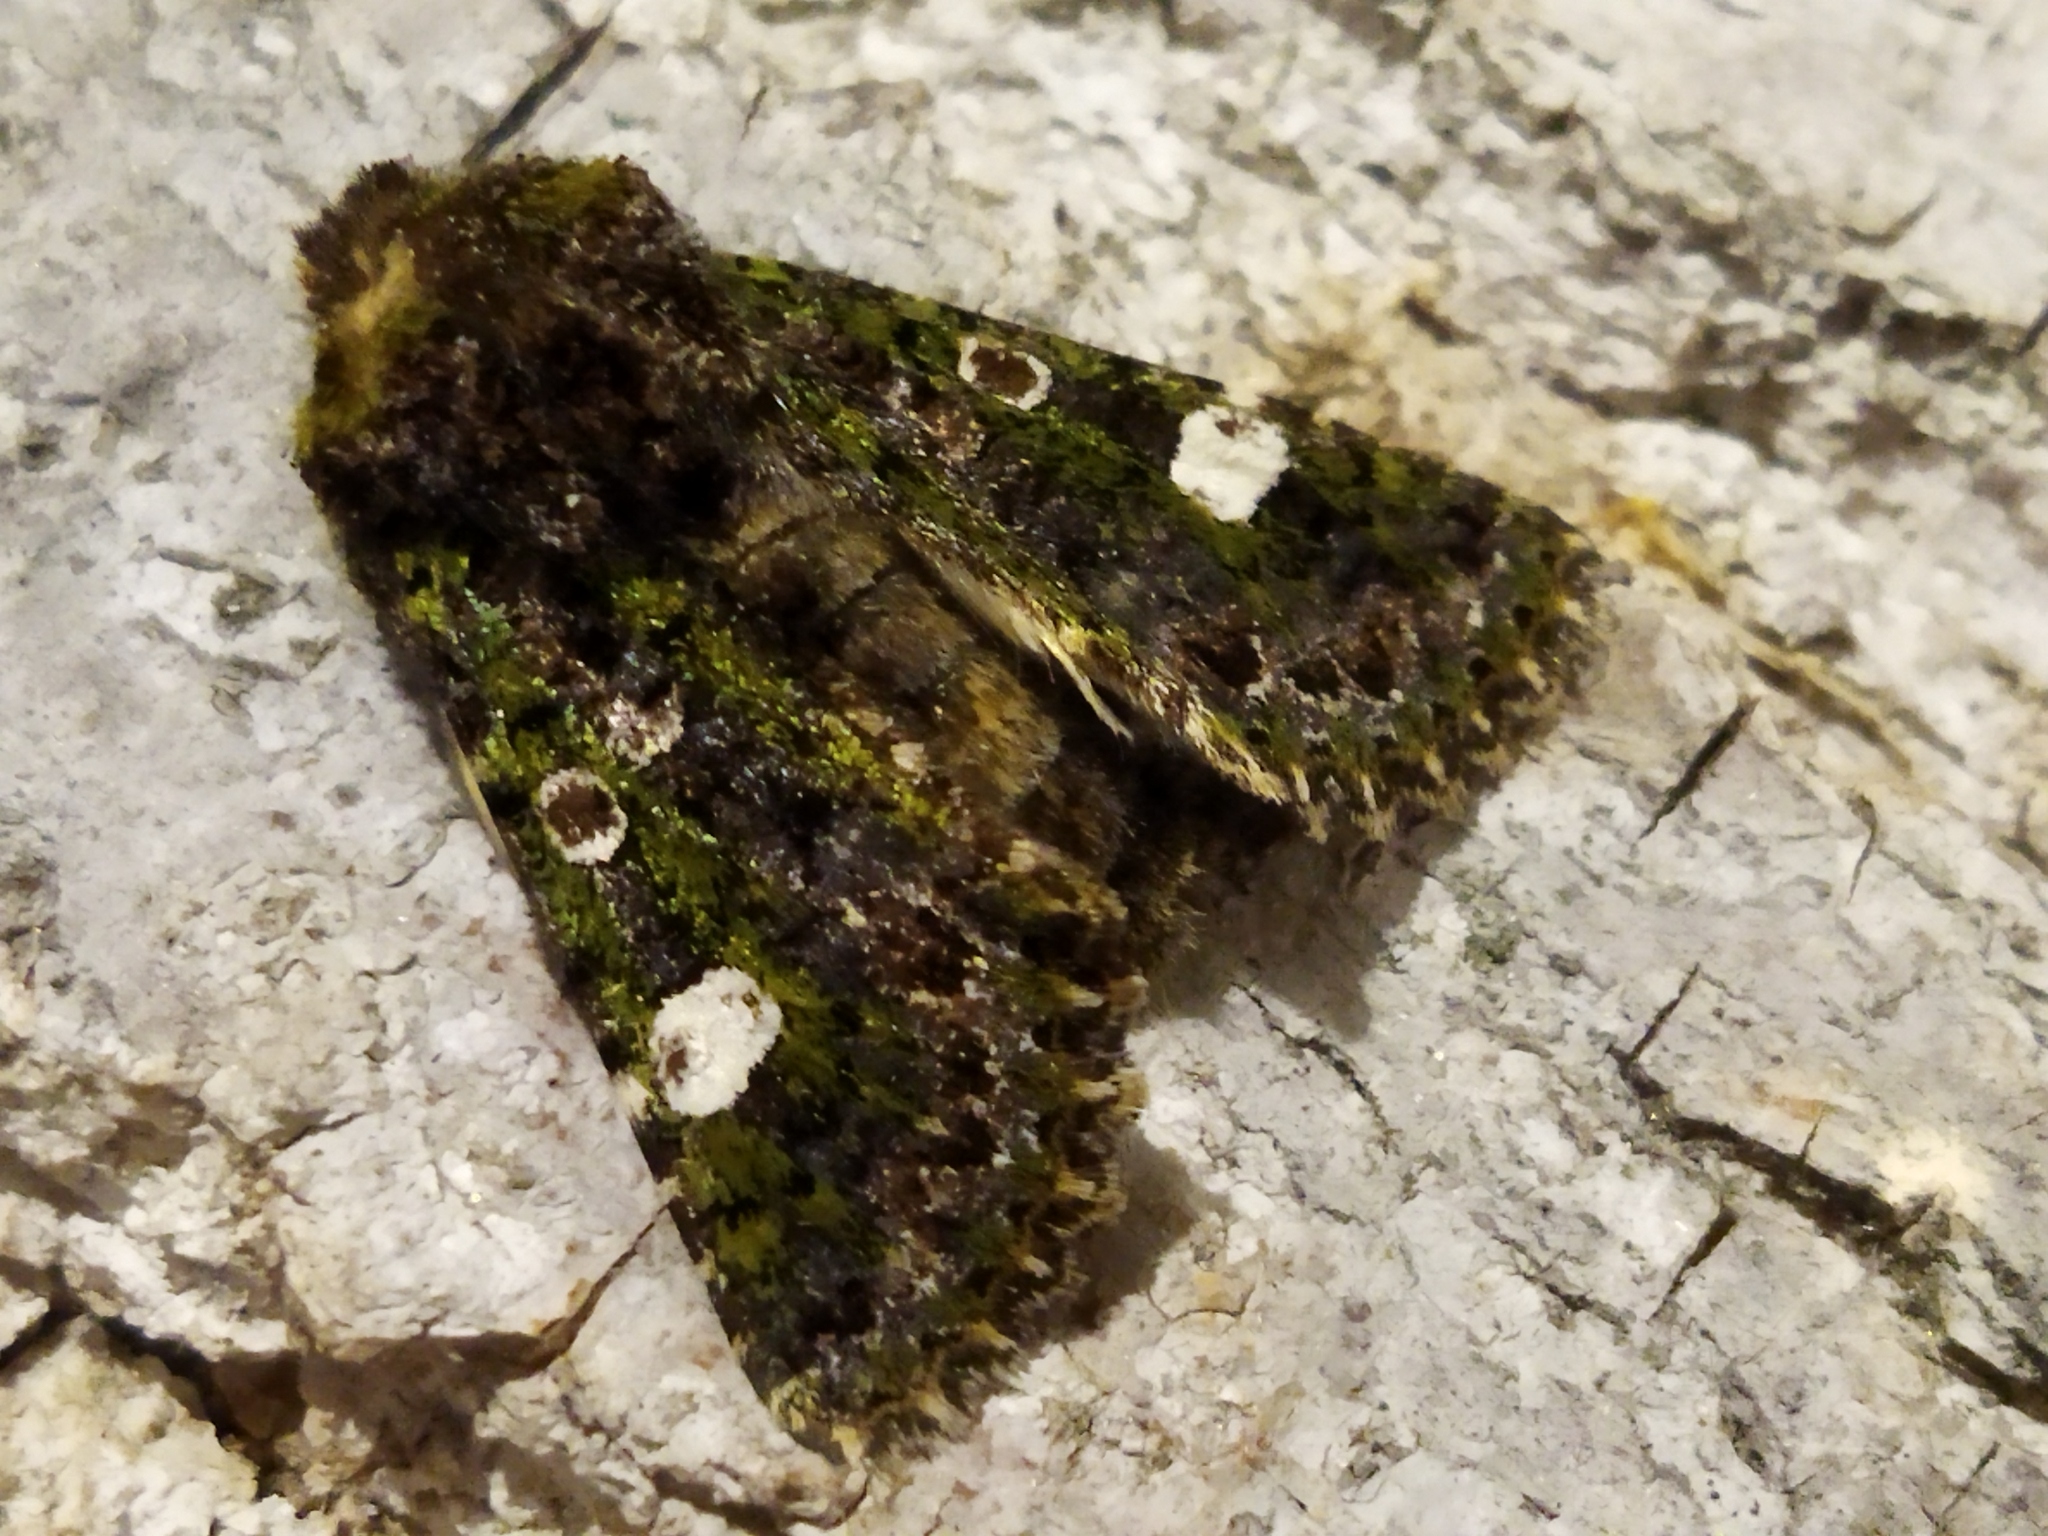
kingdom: Animalia
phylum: Arthropoda
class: Insecta
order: Lepidoptera
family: Noctuidae
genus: Valeria
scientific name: Valeria oleagina
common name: Green-brindled dot
